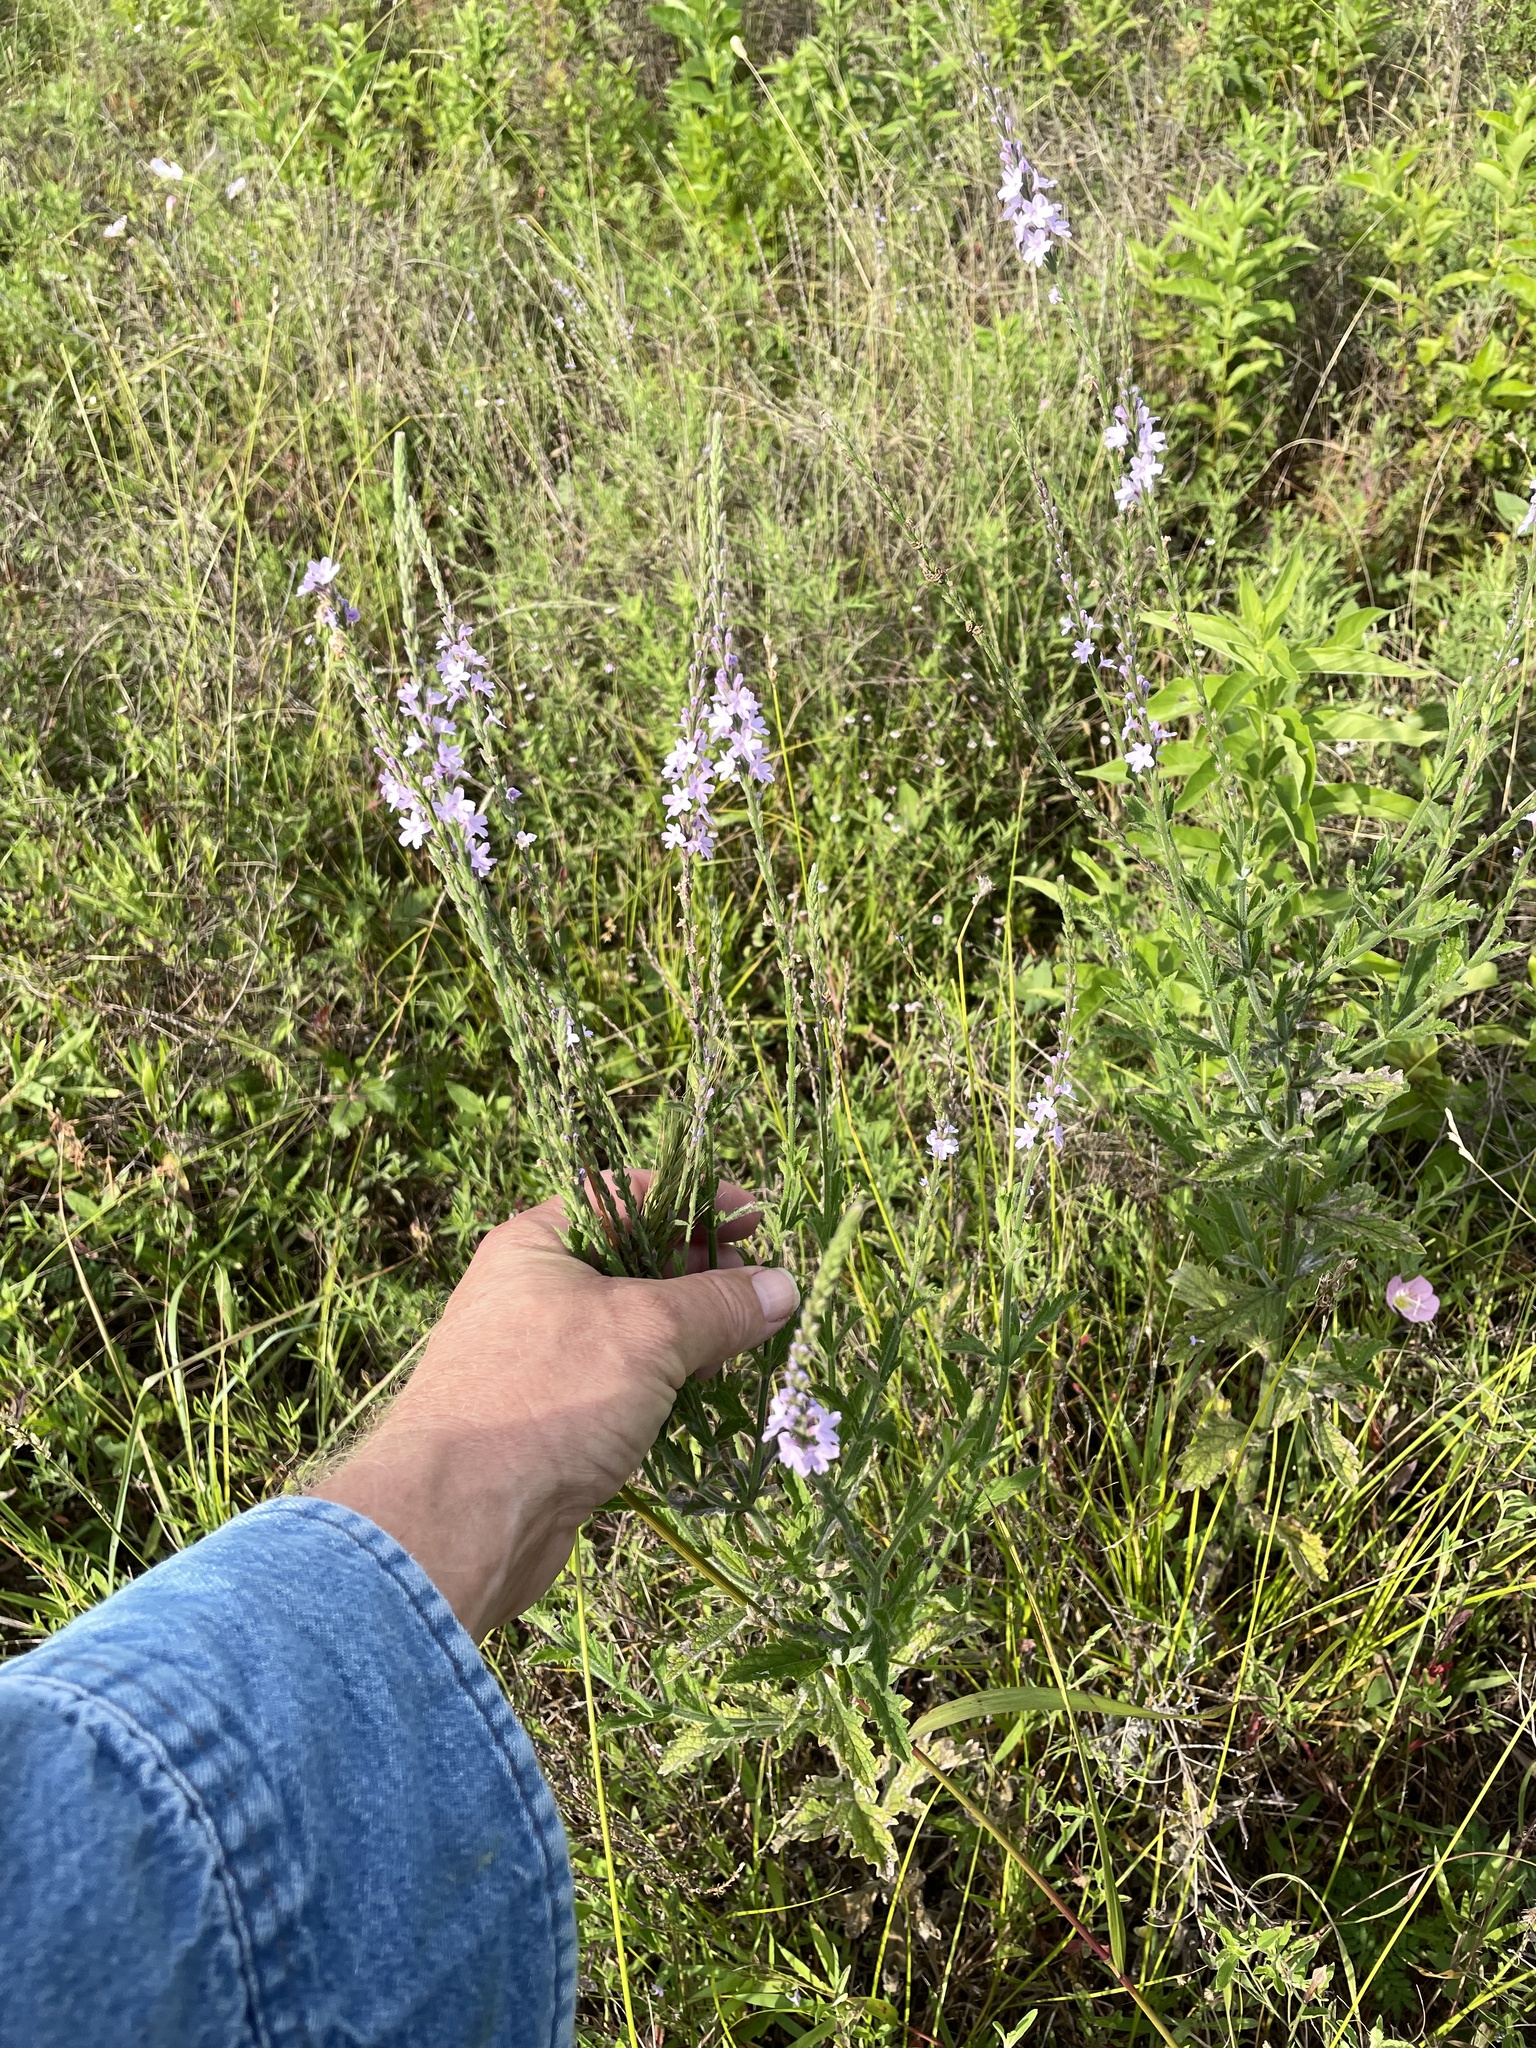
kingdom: Plantae
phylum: Tracheophyta
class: Magnoliopsida
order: Lamiales
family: Verbenaceae
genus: Verbena
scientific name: Verbena xutha
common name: Gulf vervain
